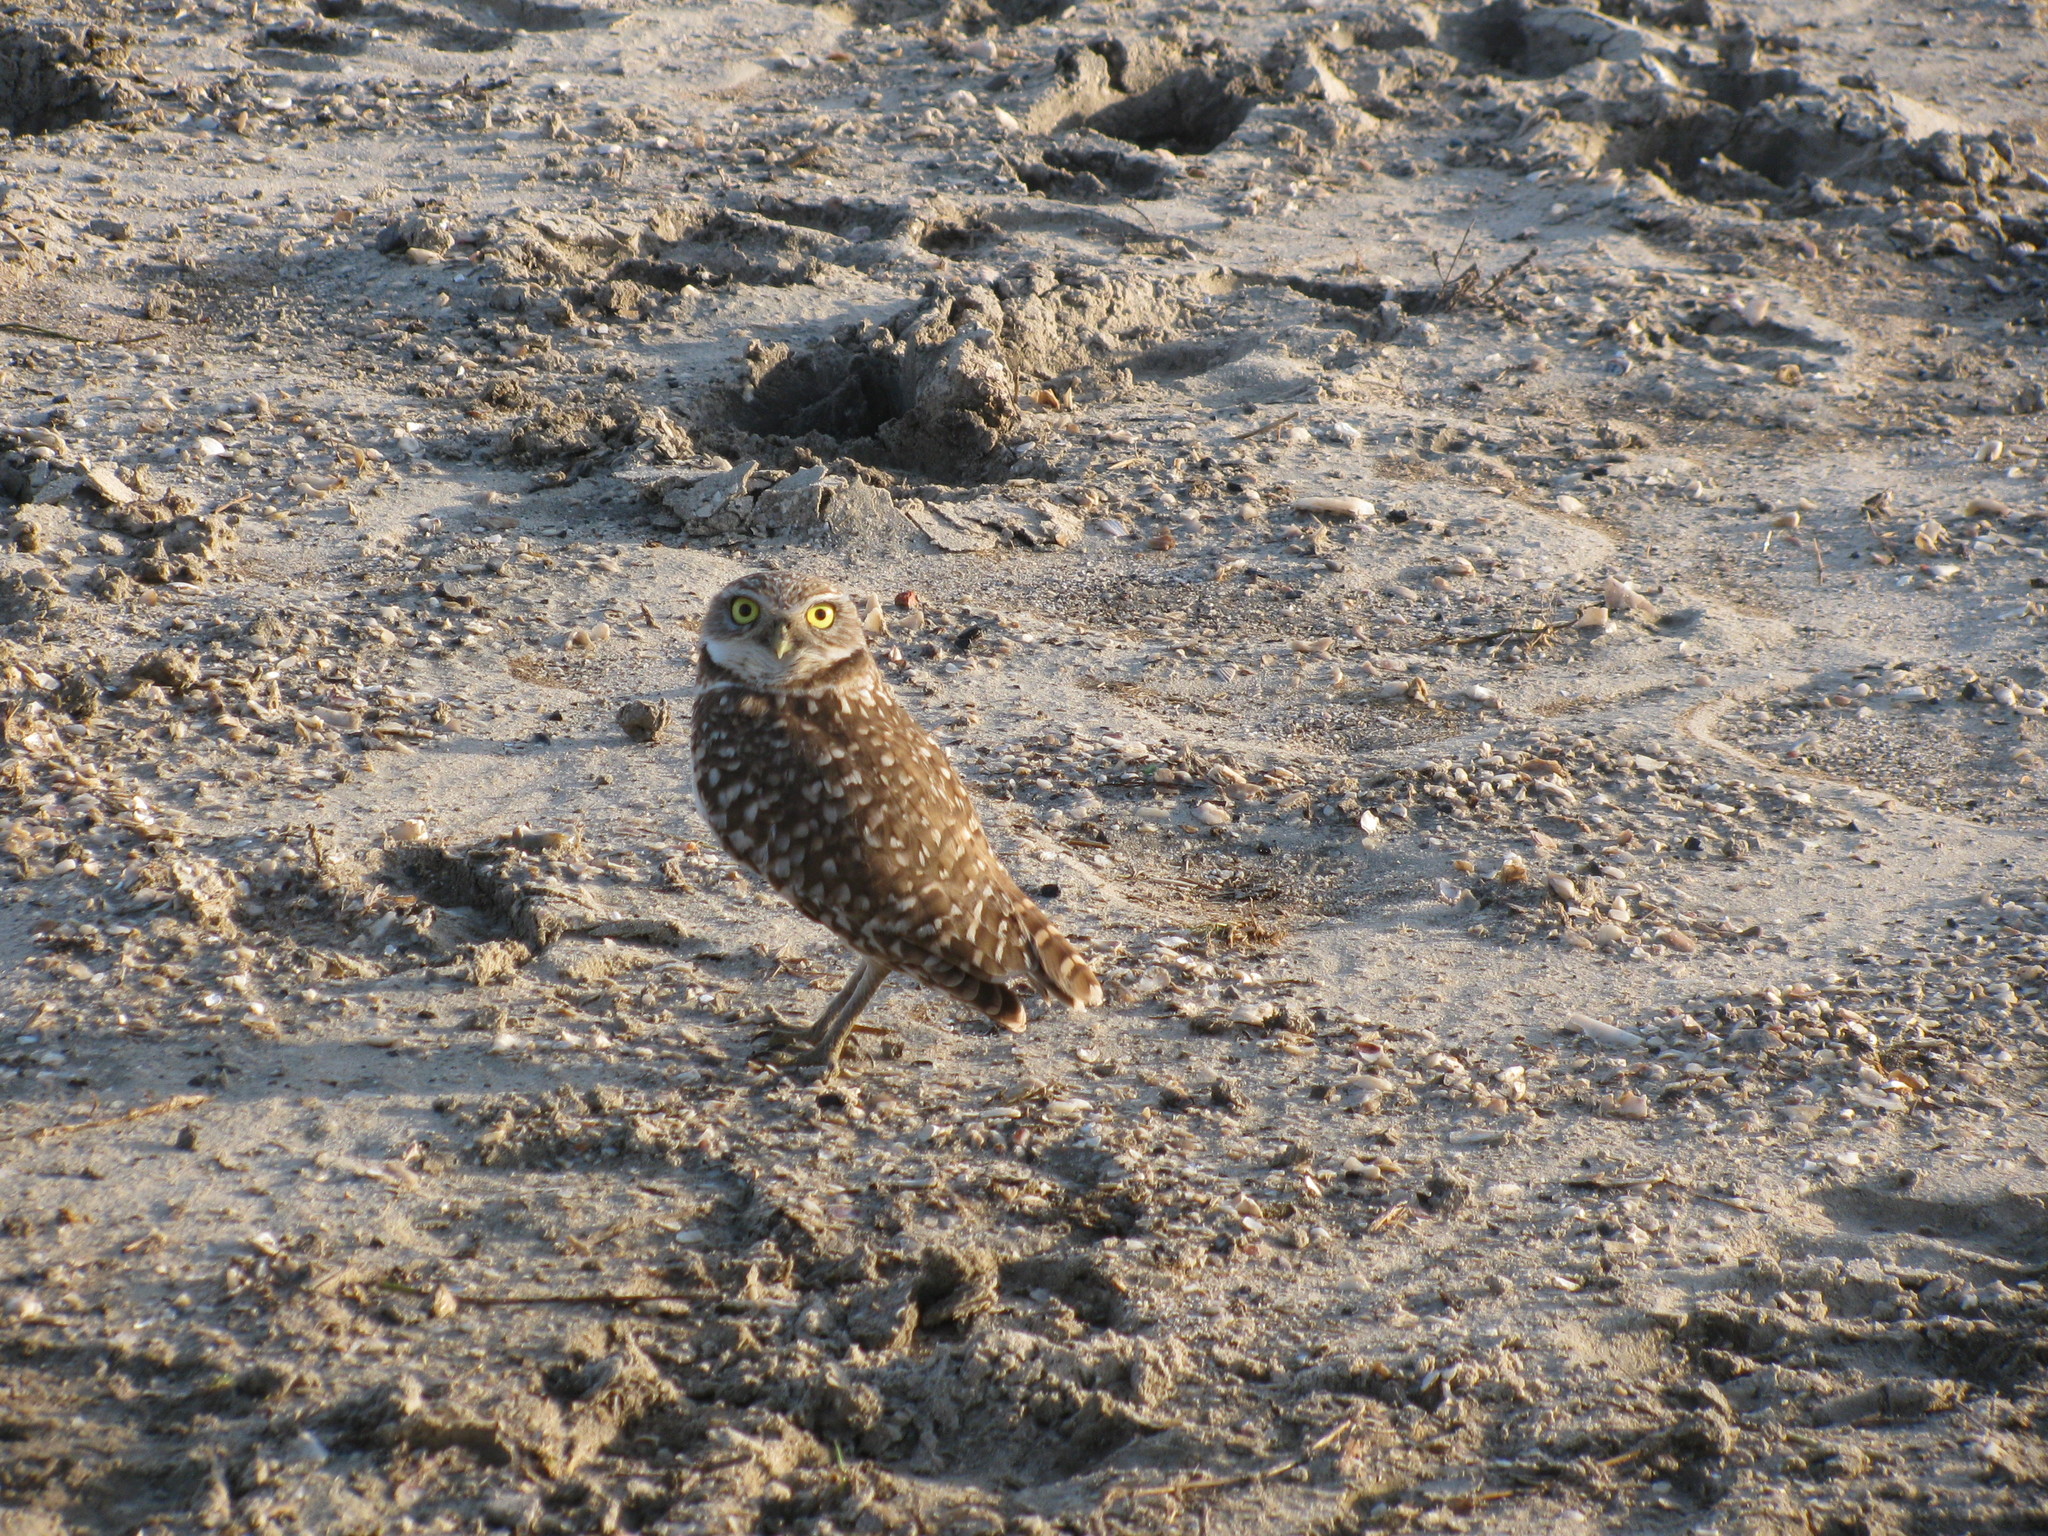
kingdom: Animalia
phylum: Chordata
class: Aves
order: Strigiformes
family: Strigidae
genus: Athene
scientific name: Athene cunicularia
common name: Burrowing owl
